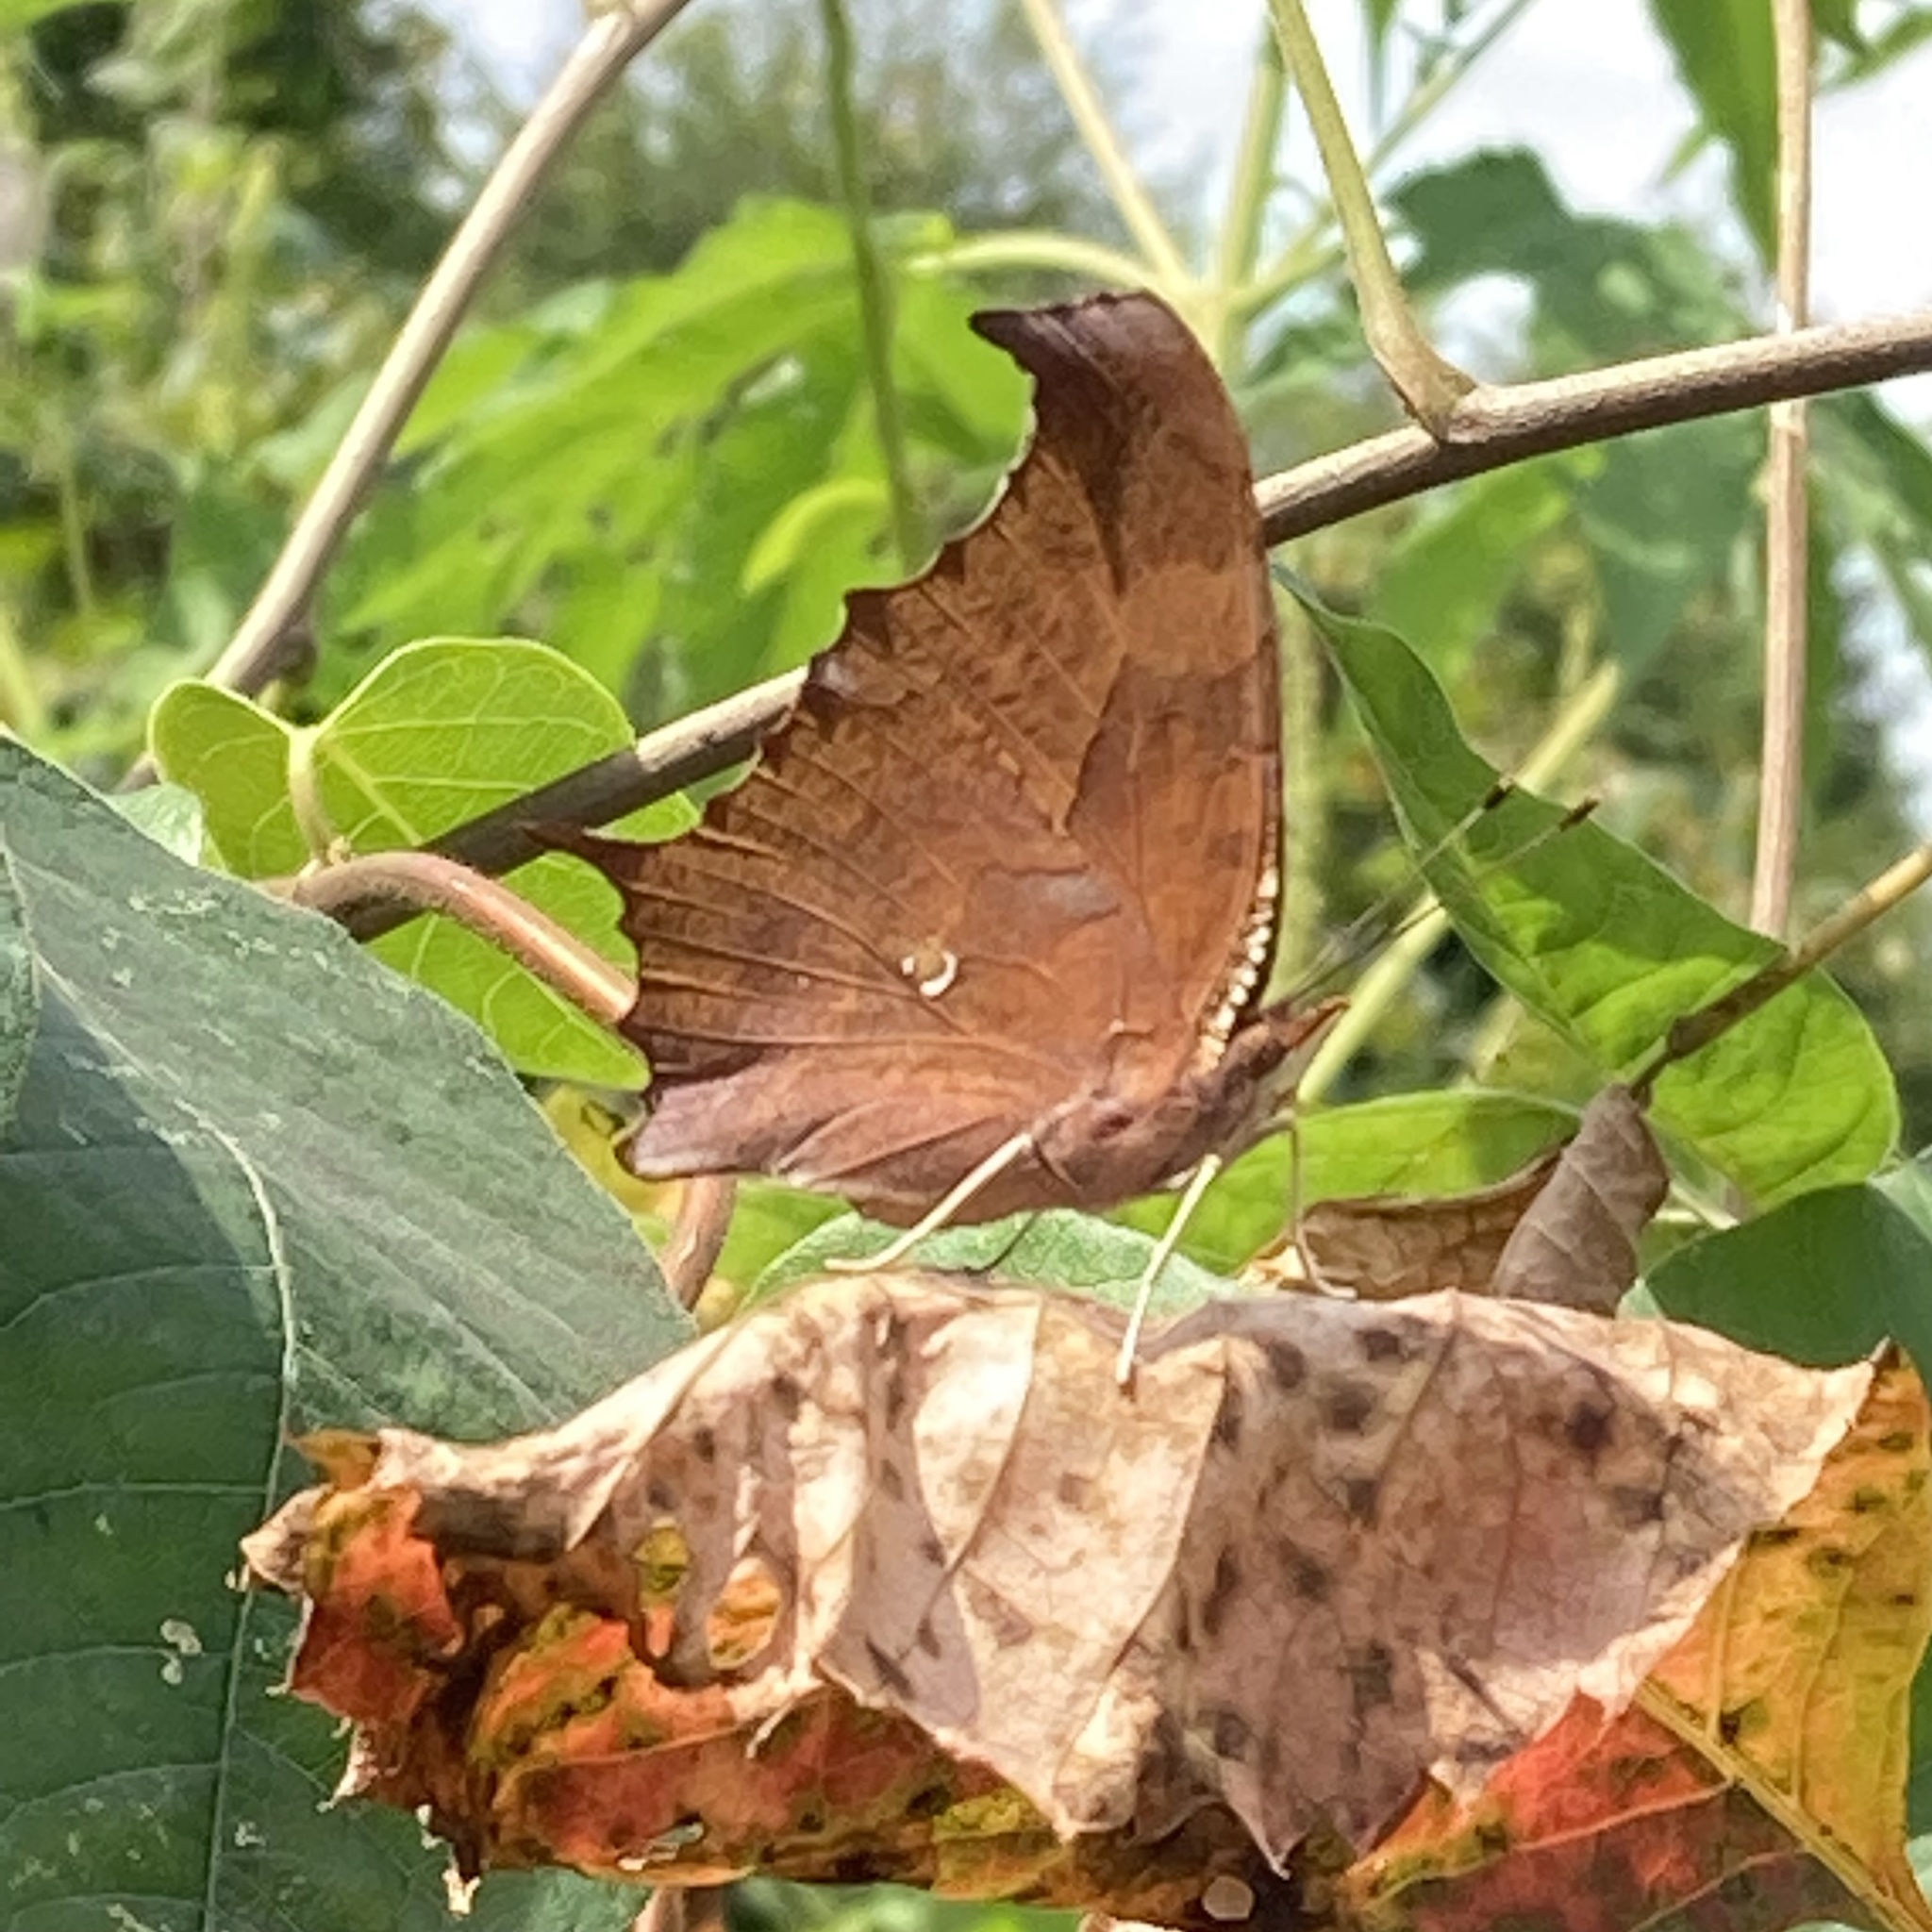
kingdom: Animalia
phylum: Arthropoda
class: Insecta
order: Lepidoptera
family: Nymphalidae
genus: Polygonia
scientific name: Polygonia interrogationis
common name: Question mark
